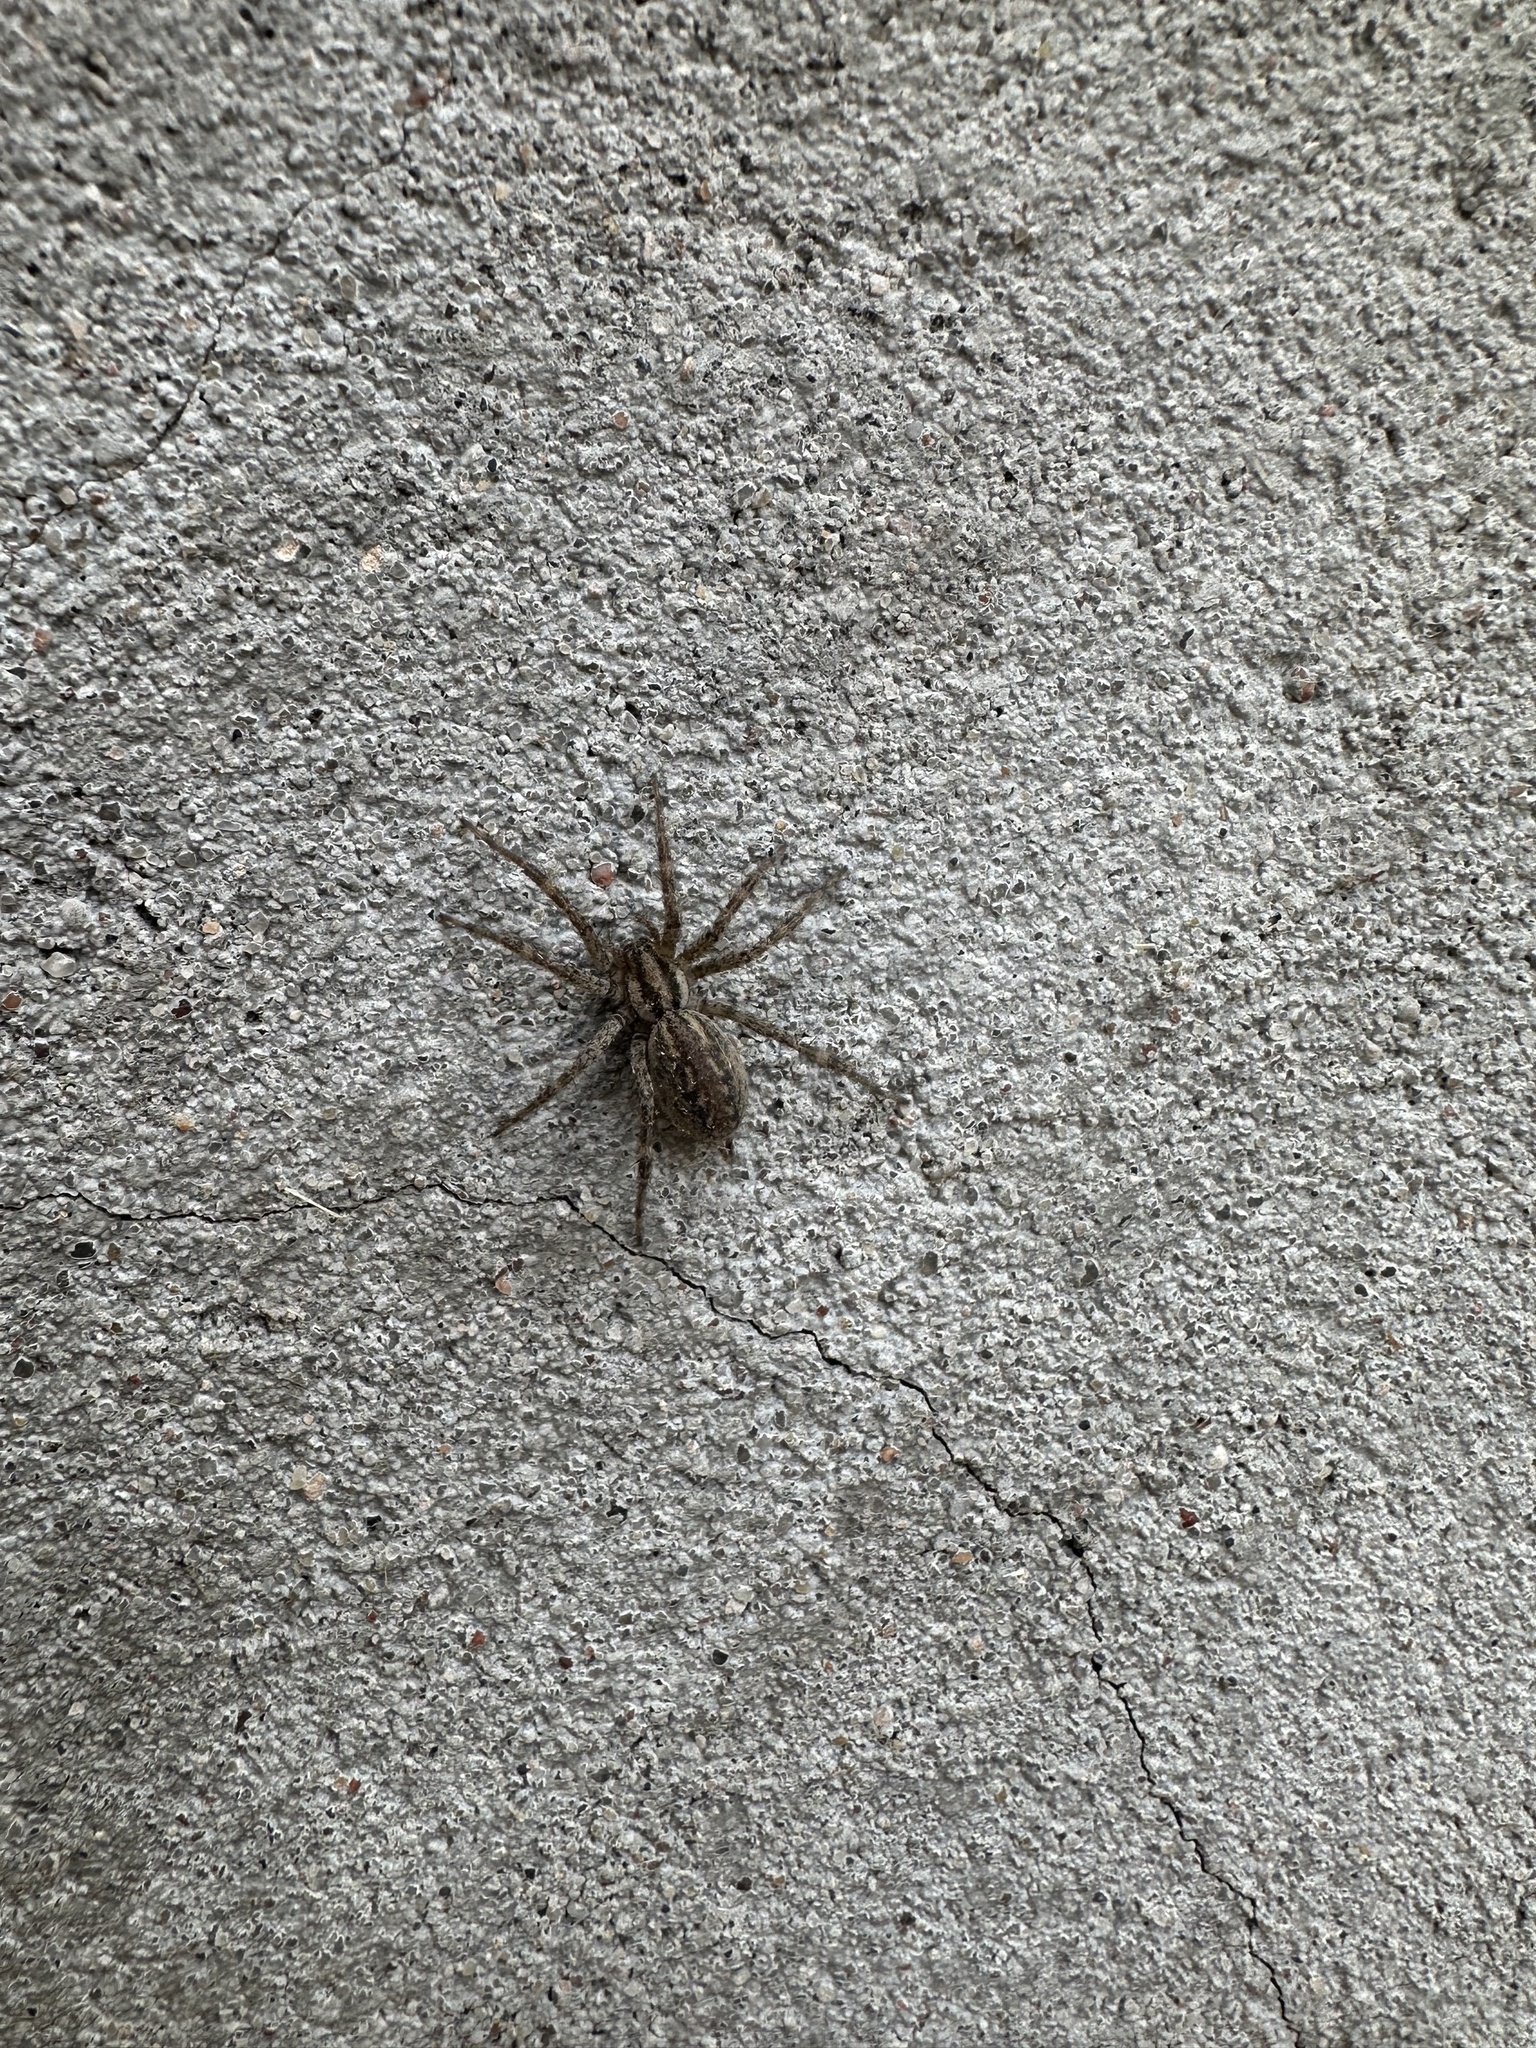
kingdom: Animalia
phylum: Arthropoda
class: Arachnida
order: Araneae
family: Agelenidae
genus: Agelenopsis
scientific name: Agelenopsis
